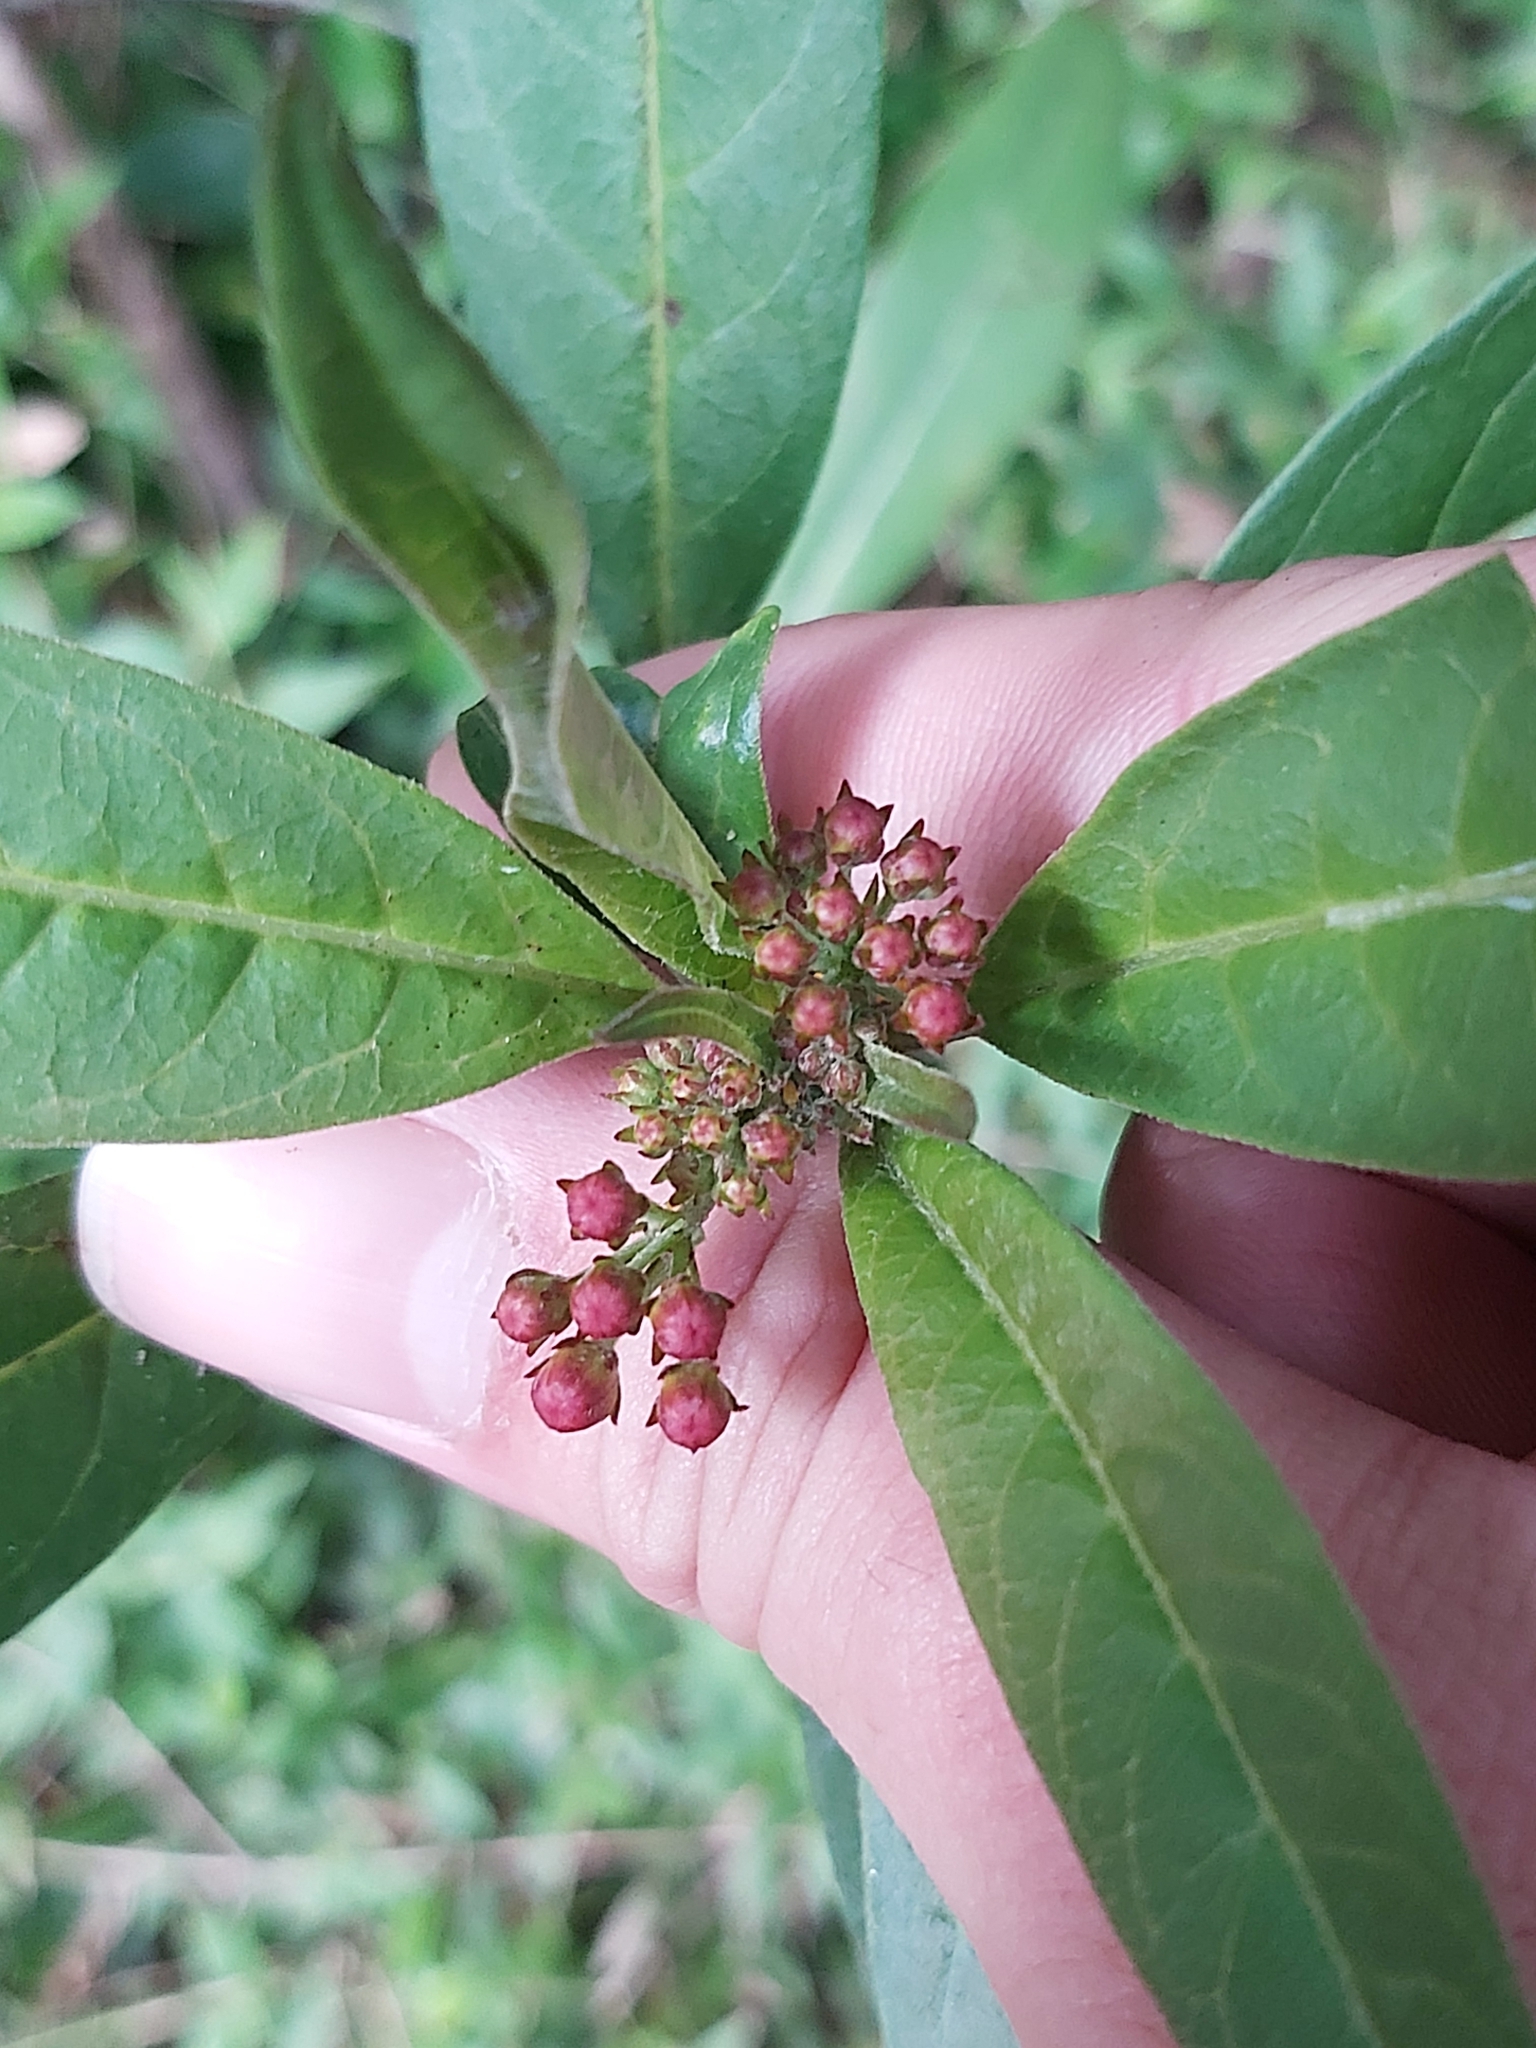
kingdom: Plantae
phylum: Tracheophyta
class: Magnoliopsida
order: Gentianales
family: Apocynaceae
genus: Asclepias
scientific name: Asclepias curassavica
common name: Bloodflower
